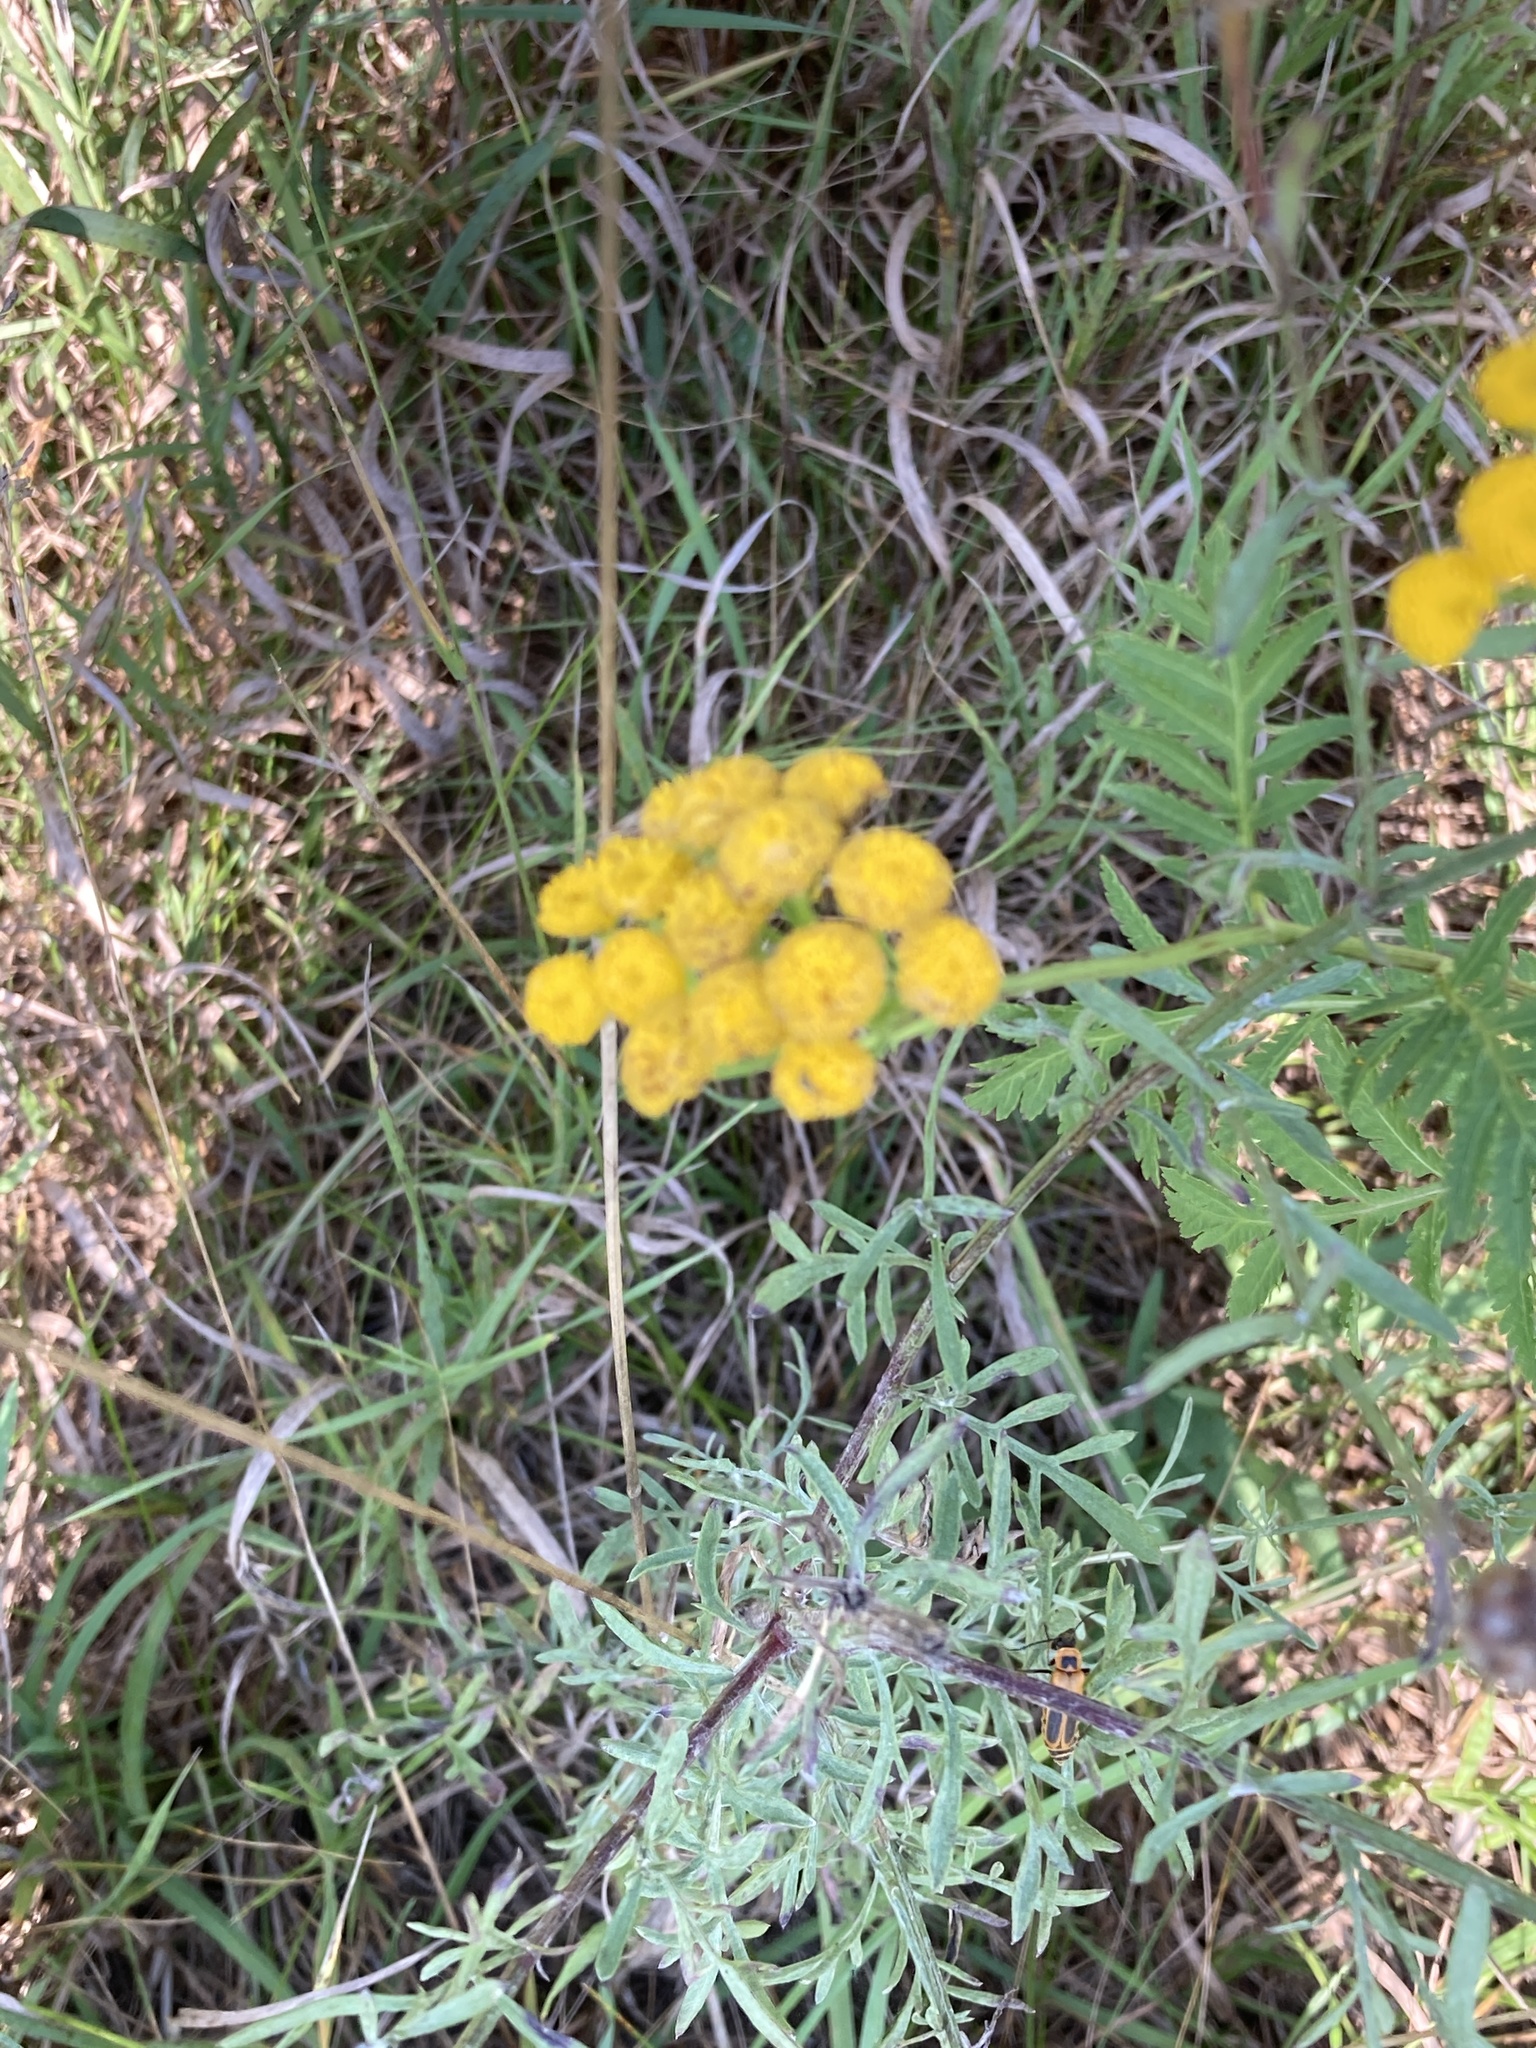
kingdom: Plantae
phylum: Tracheophyta
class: Magnoliopsida
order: Asterales
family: Asteraceae
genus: Tanacetum
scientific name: Tanacetum vulgare
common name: Common tansy
